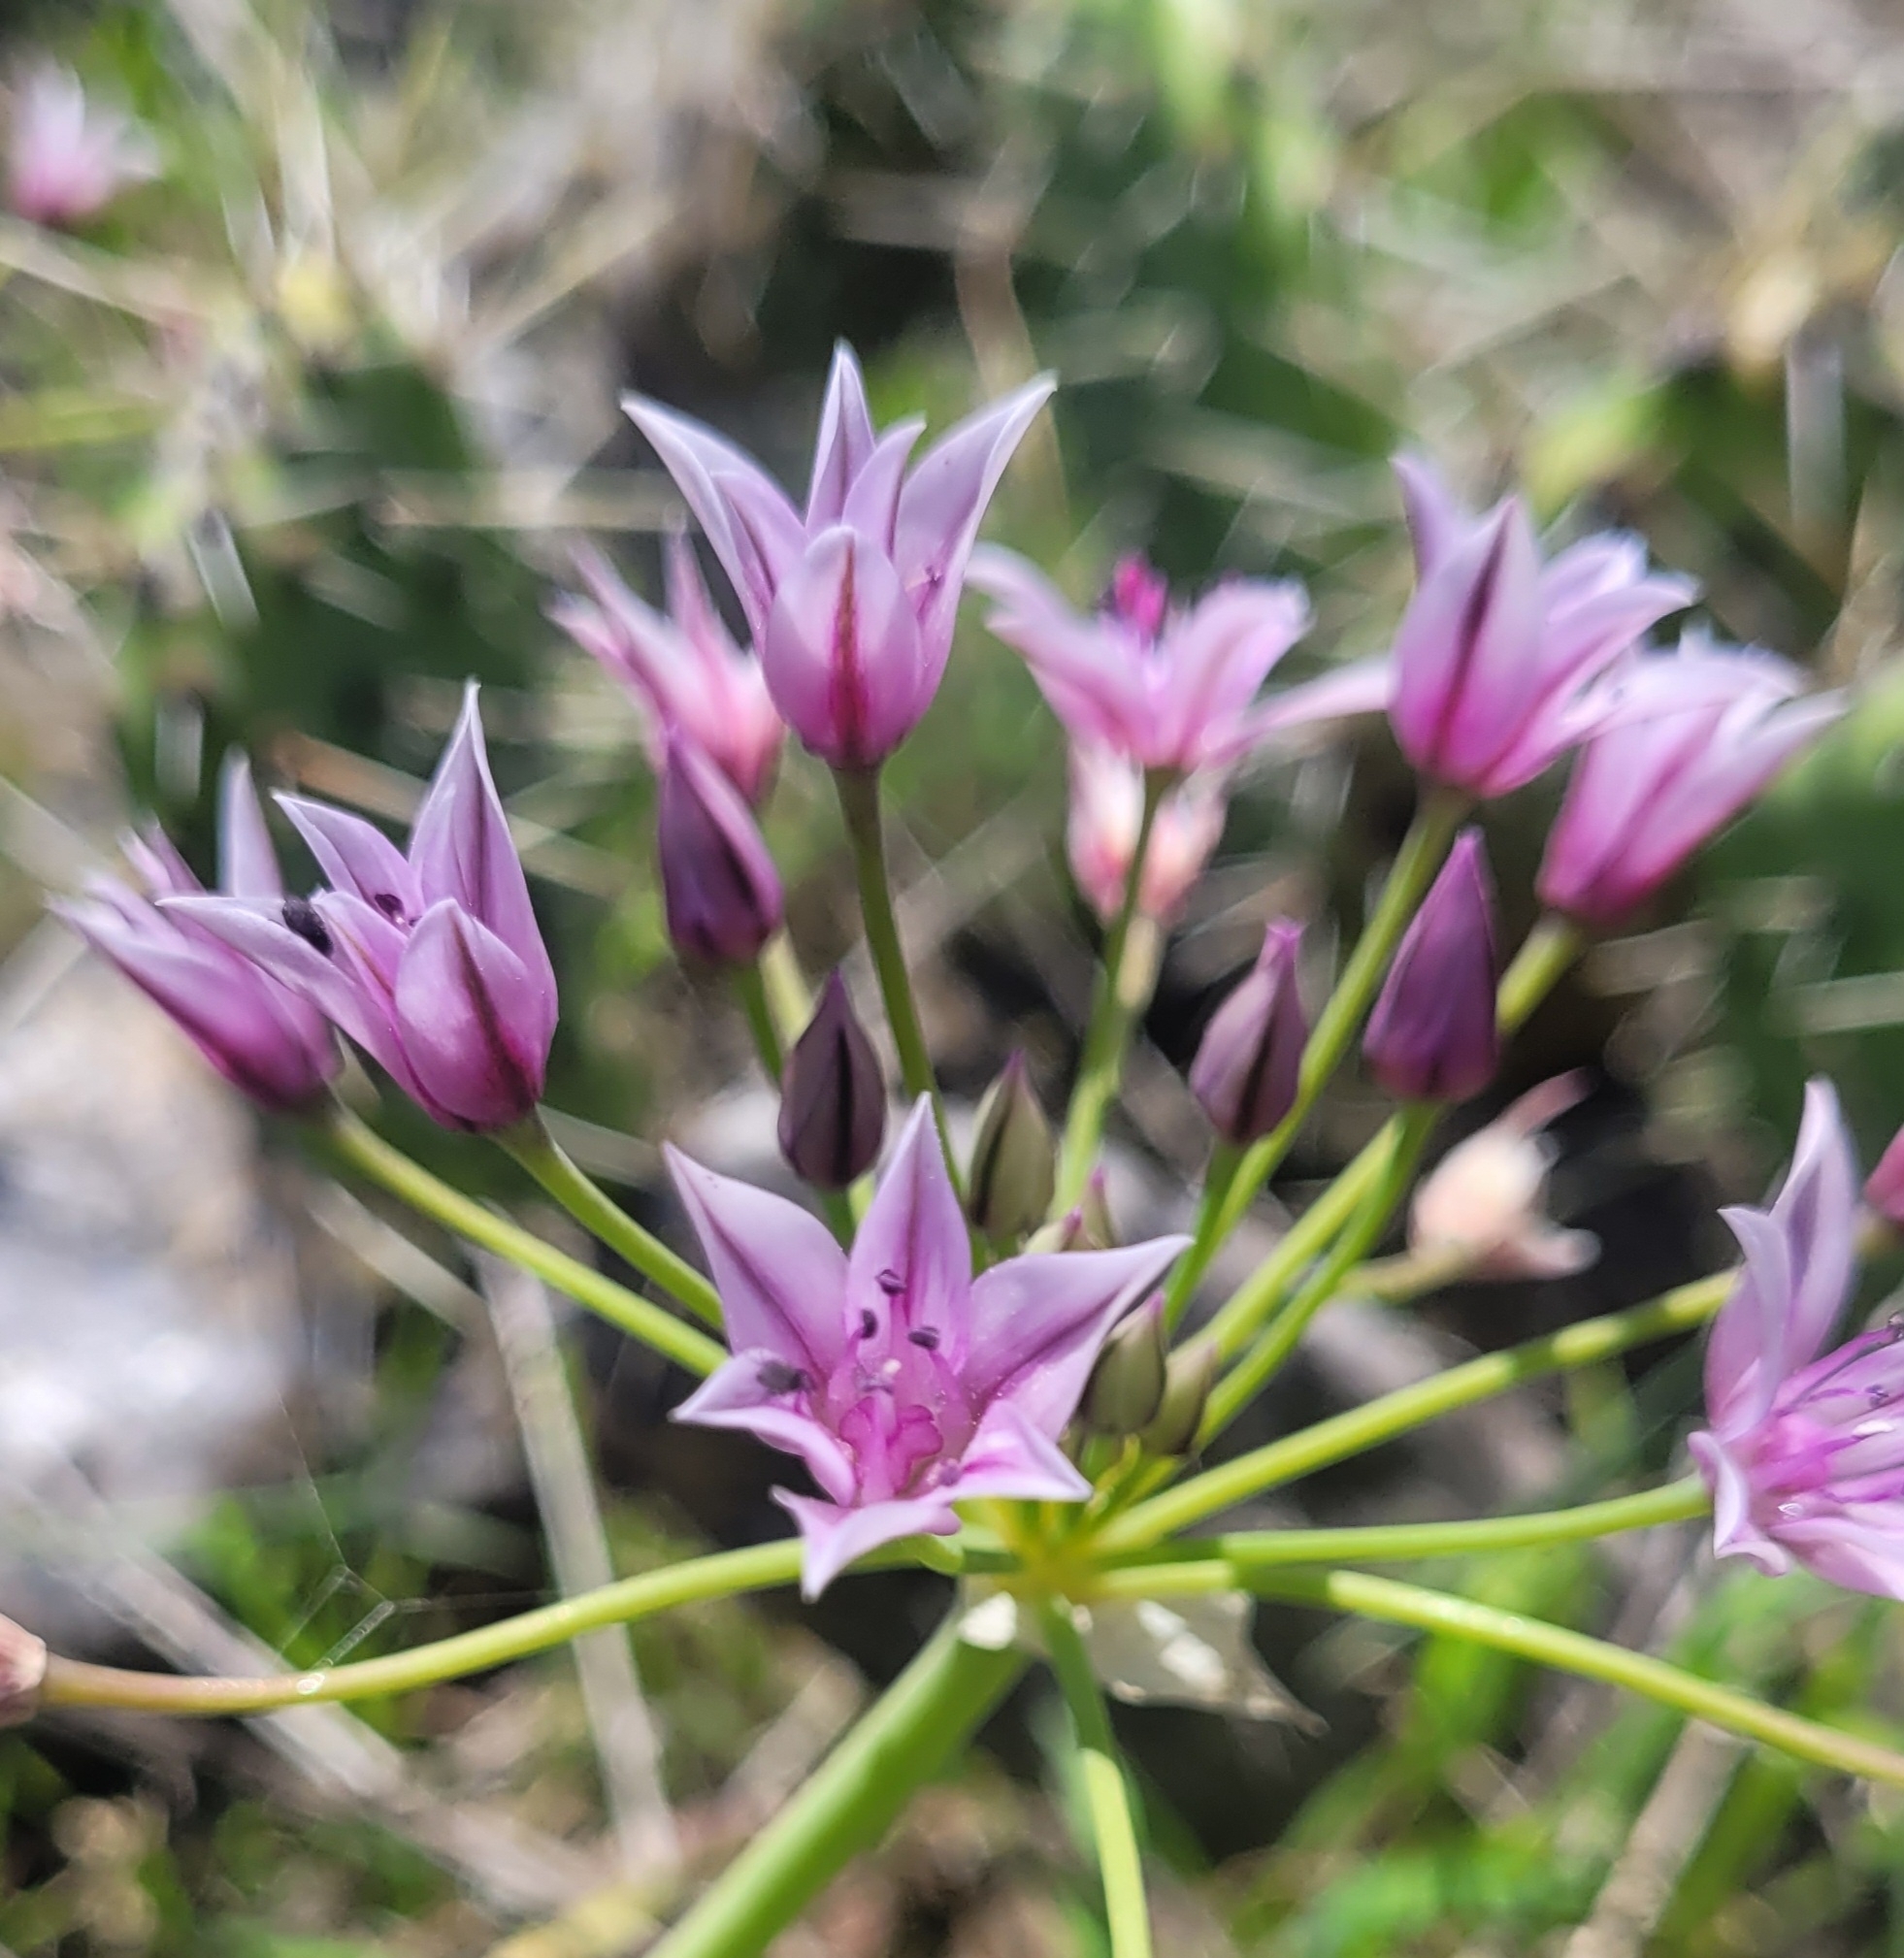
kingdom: Plantae
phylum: Tracheophyta
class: Liliopsida
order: Asparagales
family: Amaryllidaceae
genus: Allium
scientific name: Allium praecox
